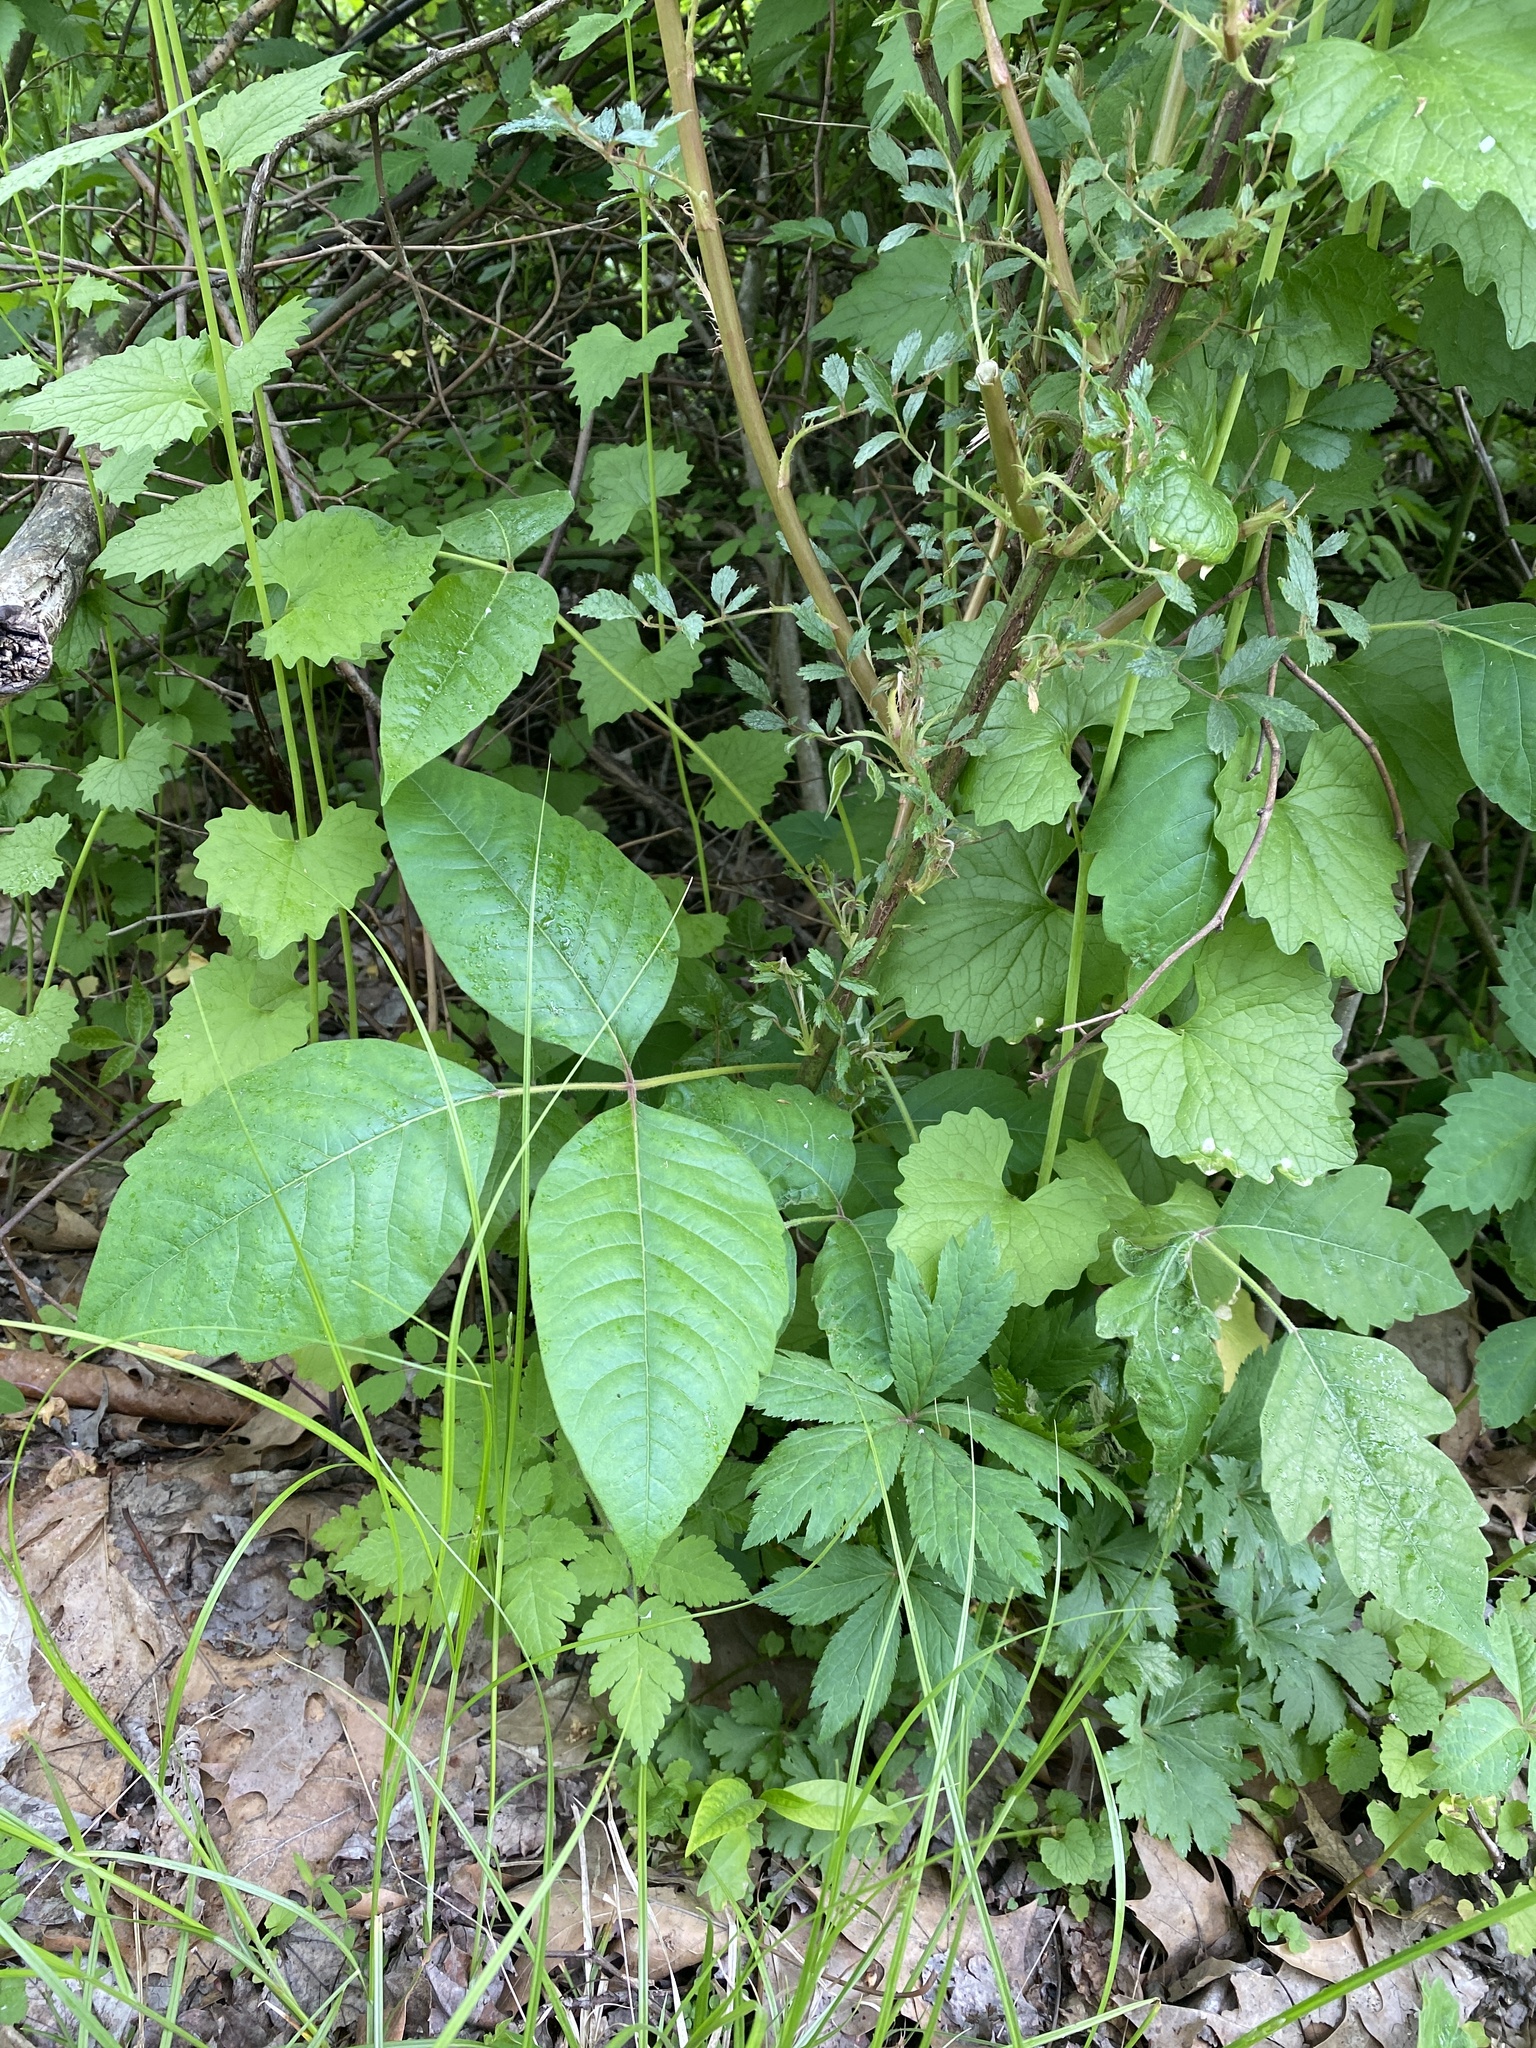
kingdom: Plantae
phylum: Tracheophyta
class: Magnoliopsida
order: Sapindales
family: Anacardiaceae
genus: Toxicodendron
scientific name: Toxicodendron radicans
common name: Poison ivy
